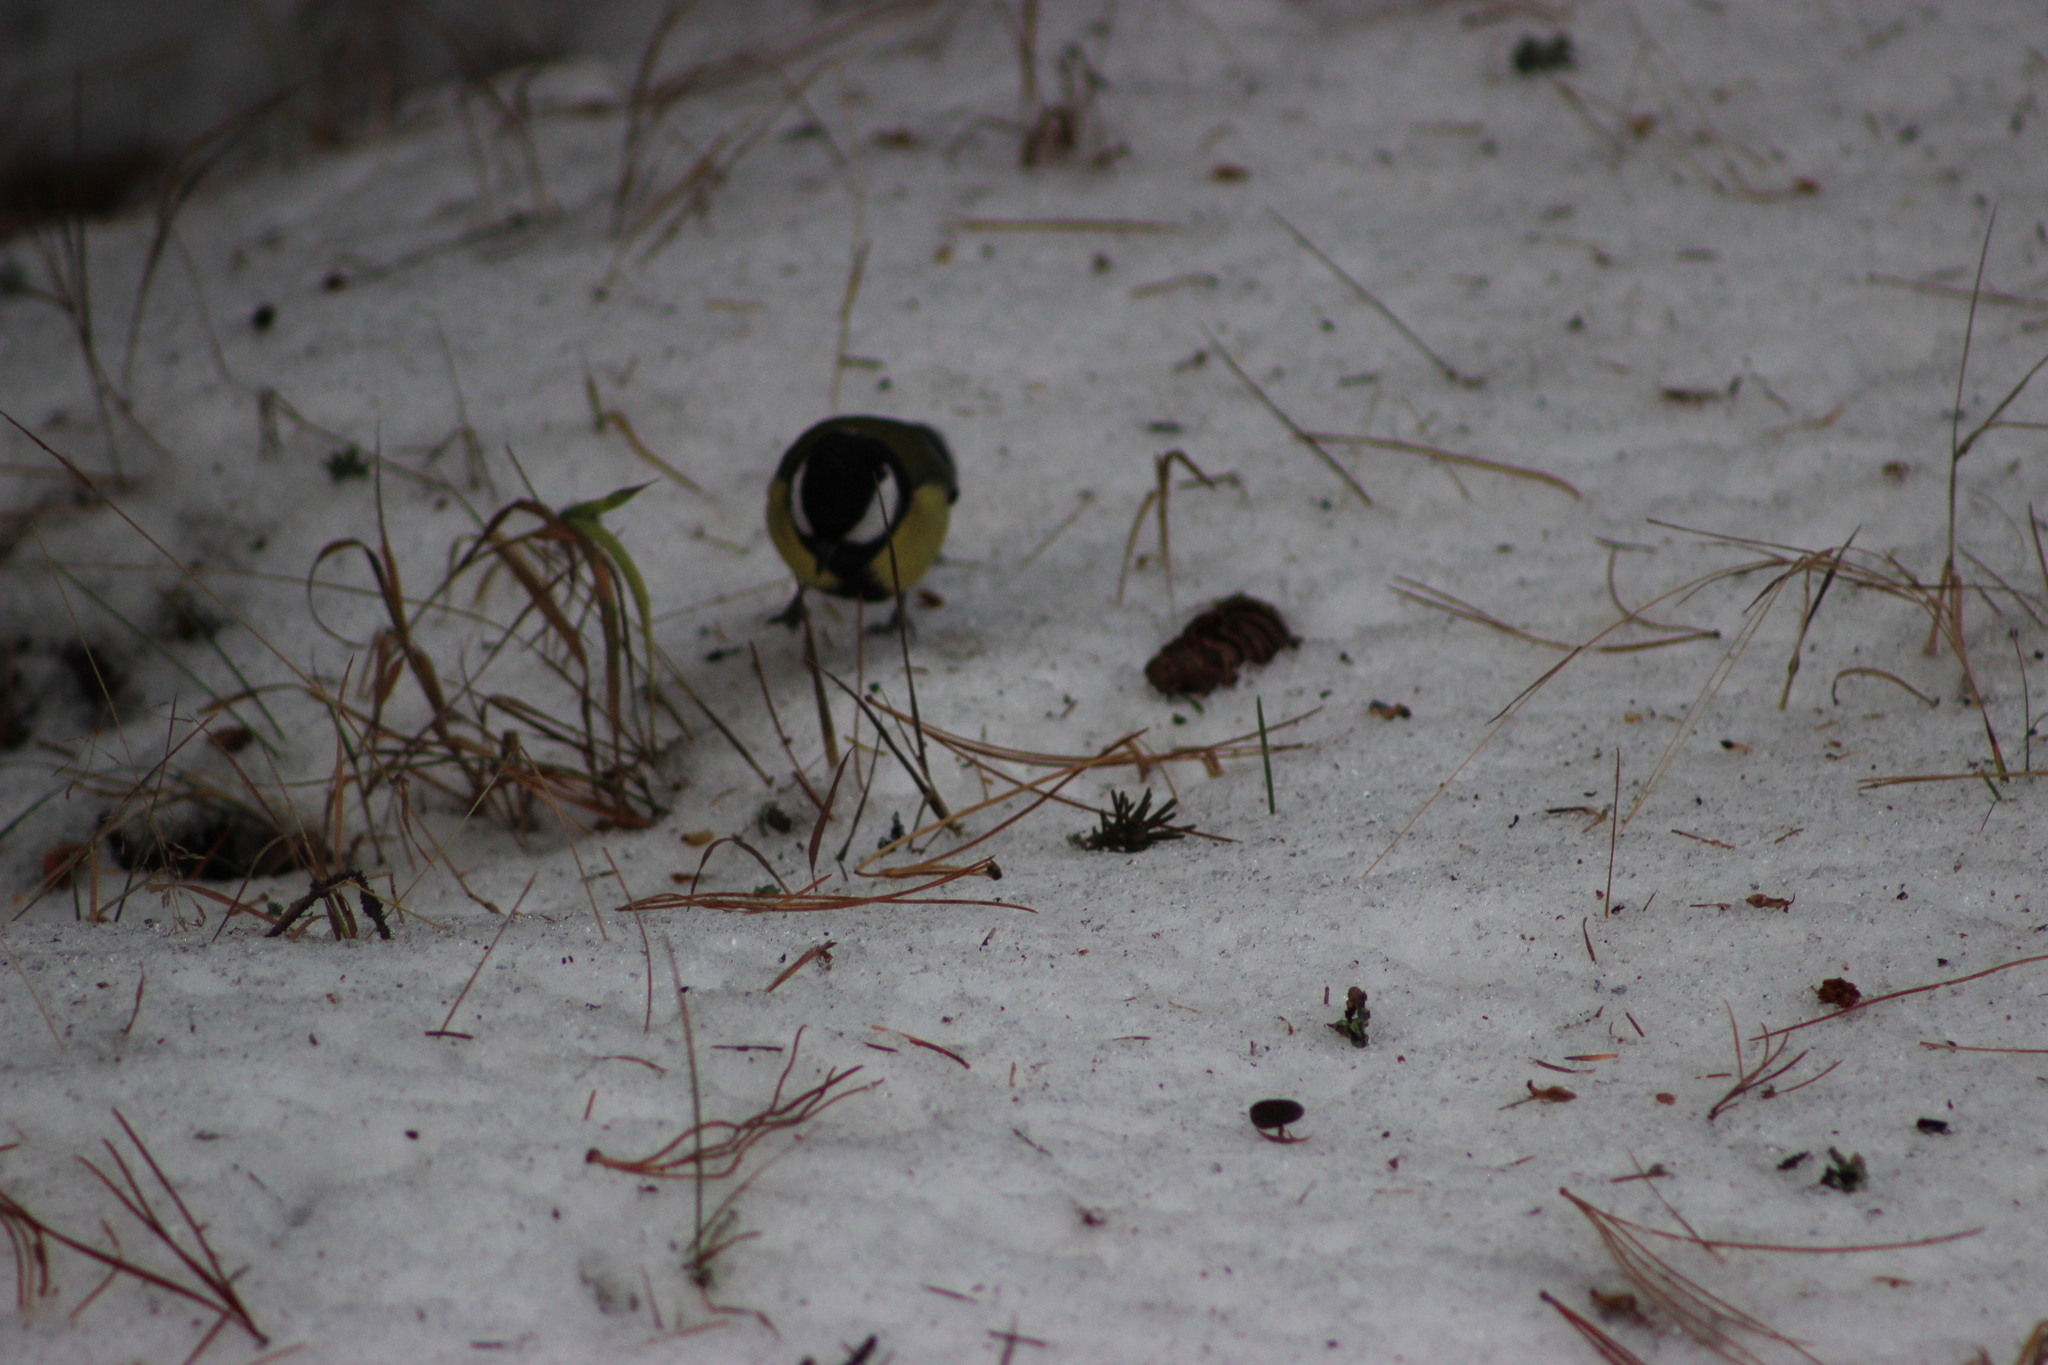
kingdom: Animalia
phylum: Chordata
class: Aves
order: Passeriformes
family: Paridae
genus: Parus
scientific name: Parus major
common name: Great tit
